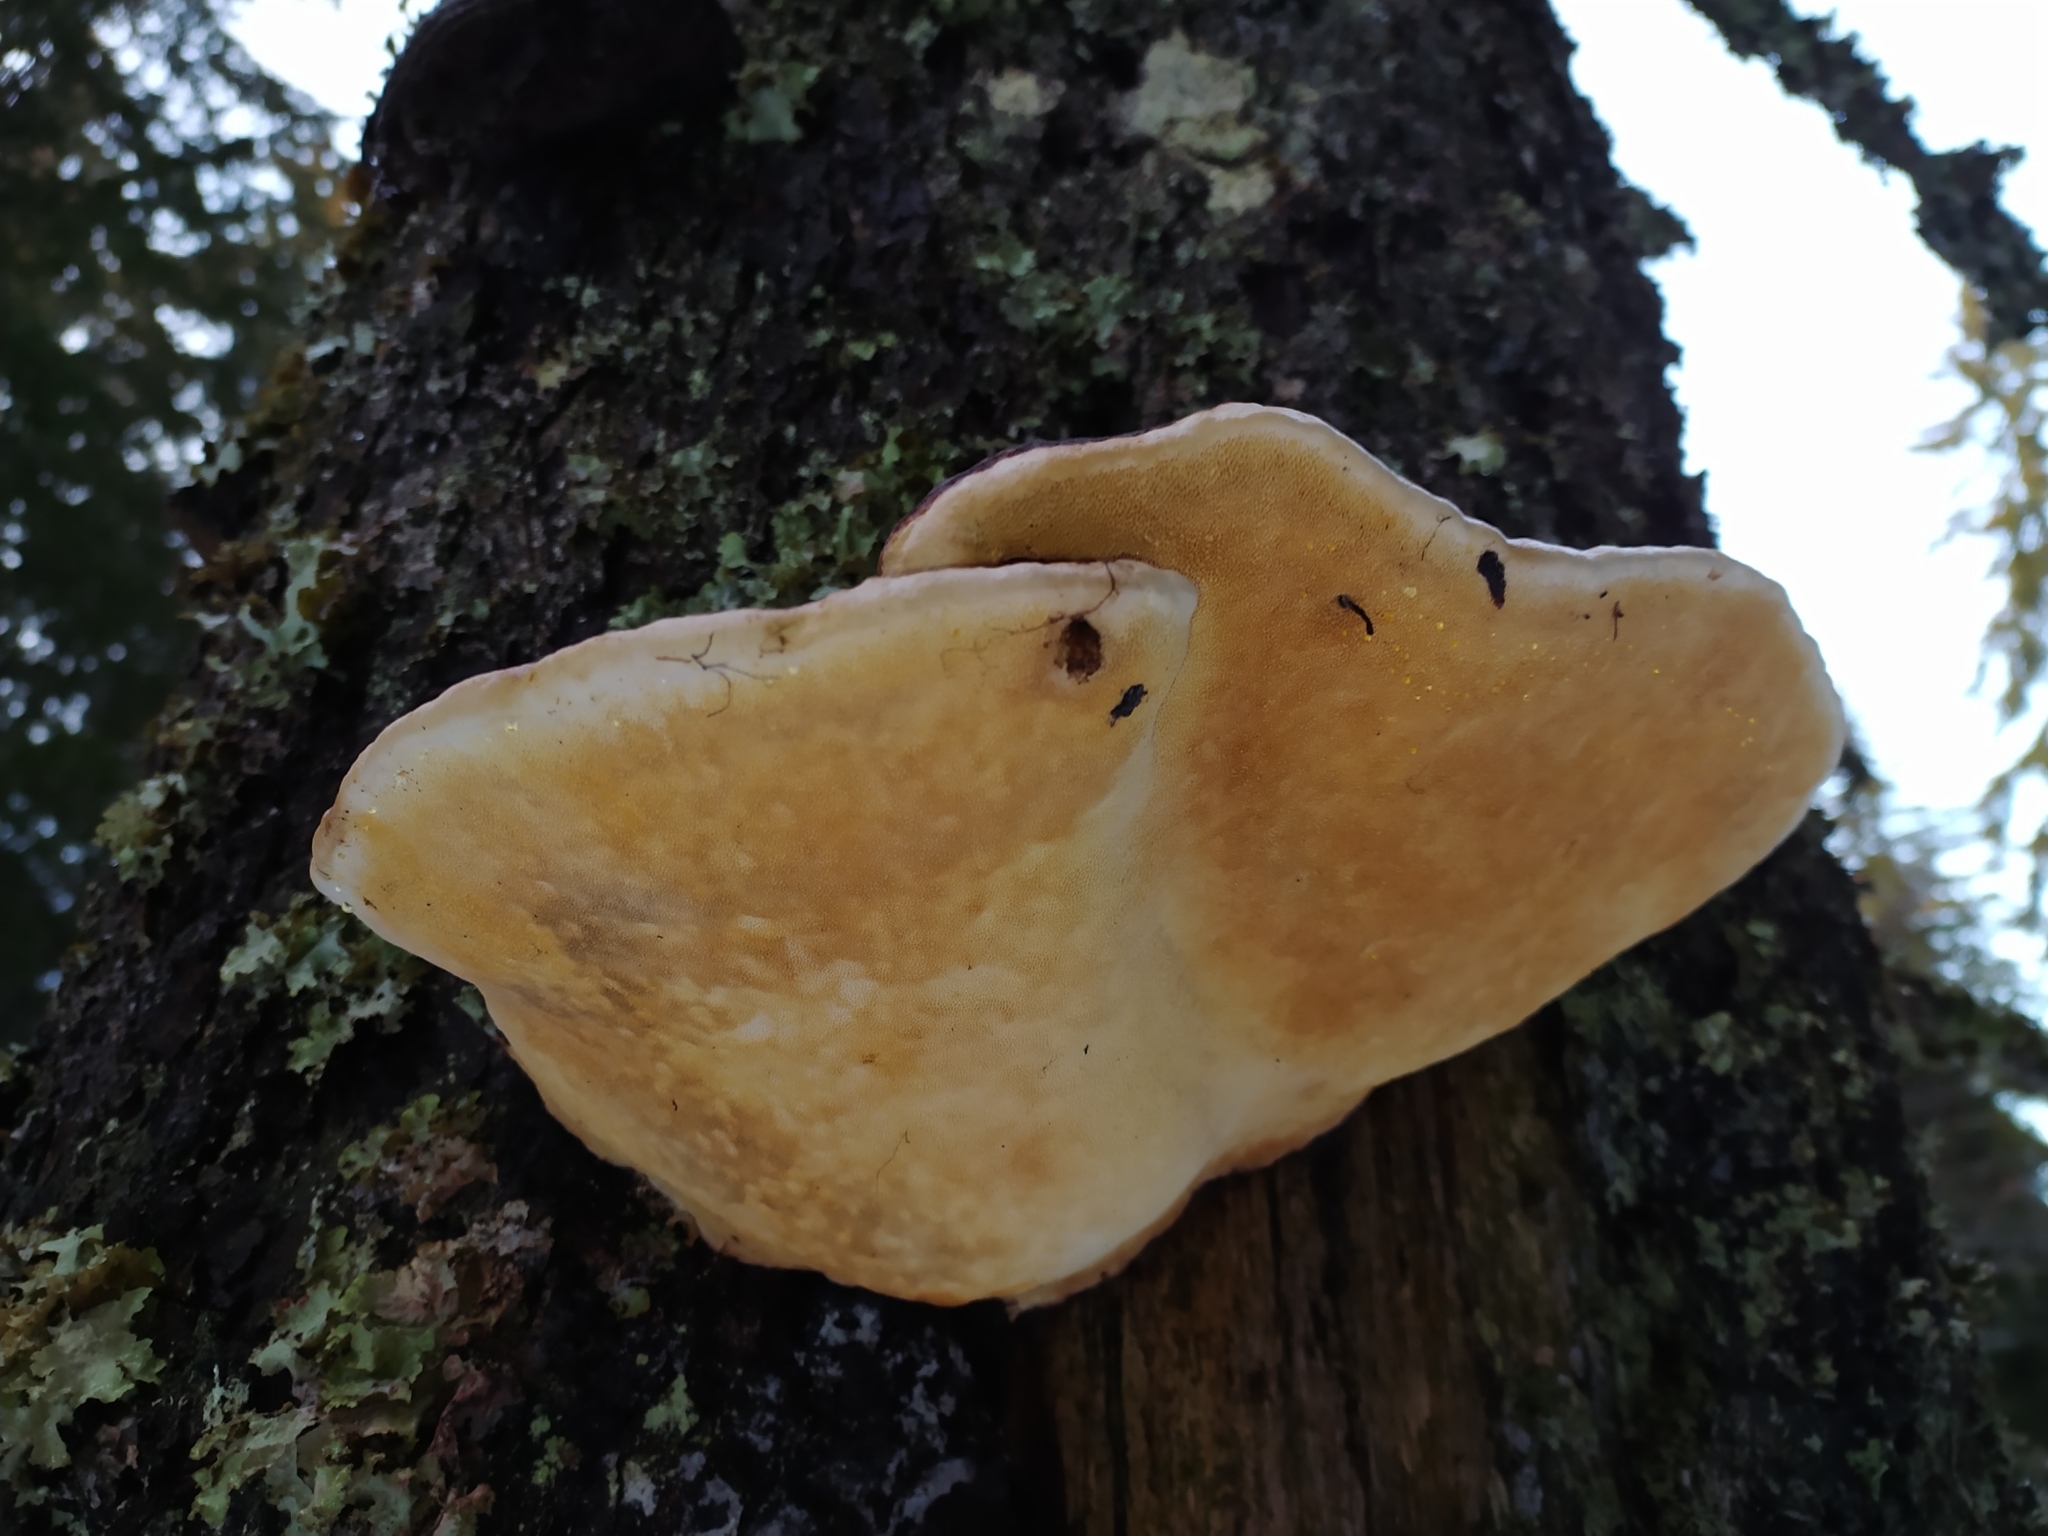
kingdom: Fungi
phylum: Basidiomycota
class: Agaricomycetes
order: Polyporales
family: Fomitopsidaceae
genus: Fomitopsis
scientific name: Fomitopsis pinicola
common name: Red-belted bracket
